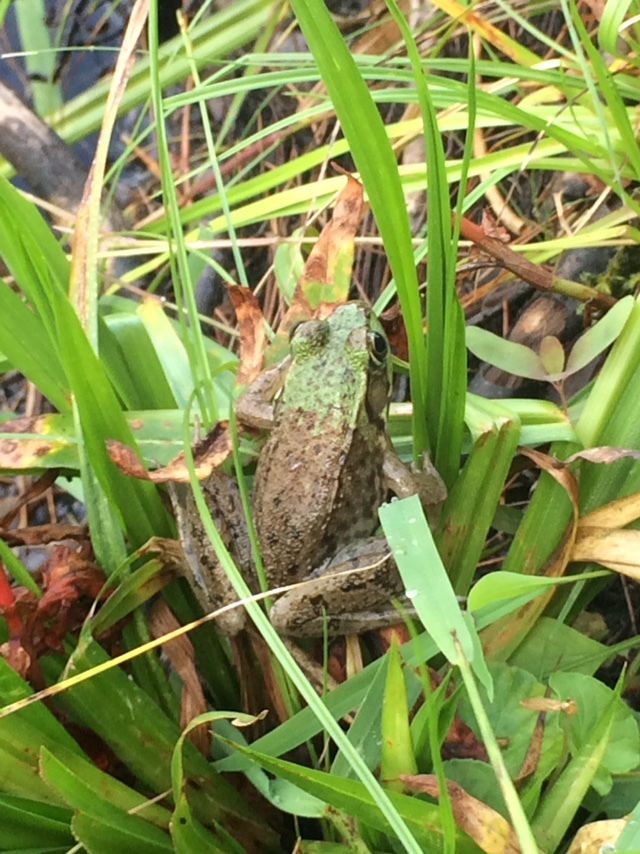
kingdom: Animalia
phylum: Chordata
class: Amphibia
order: Anura
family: Ranidae
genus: Lithobates
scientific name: Lithobates clamitans
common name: Green frog
